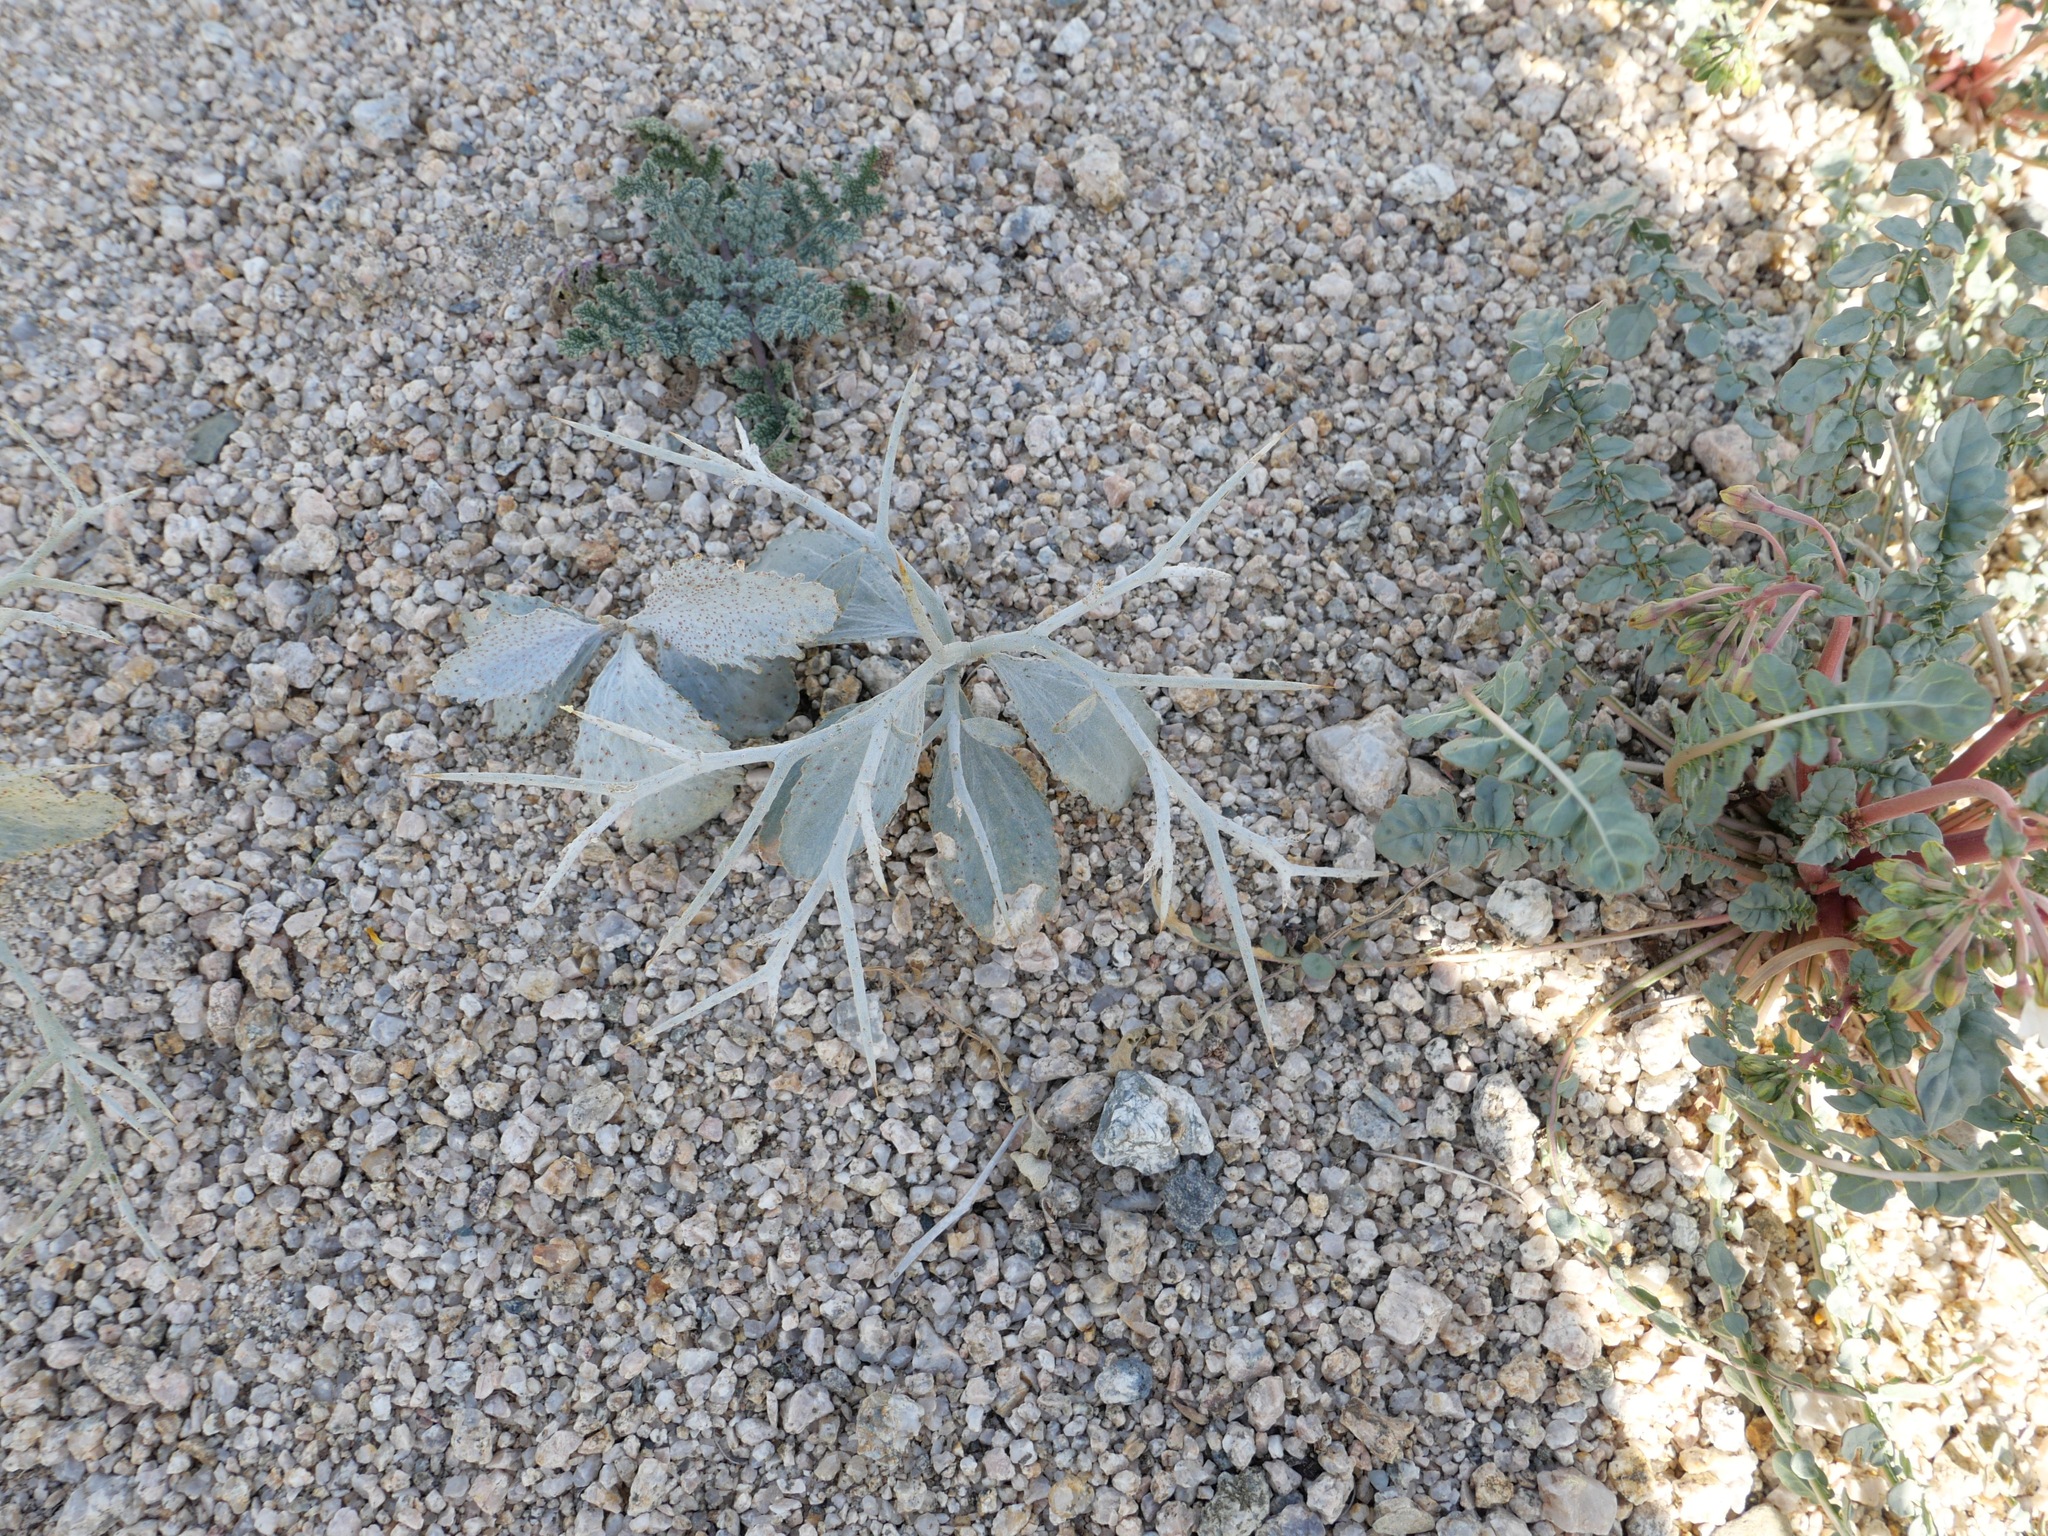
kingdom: Plantae
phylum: Tracheophyta
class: Magnoliopsida
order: Fabales
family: Fabaceae
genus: Psorothamnus
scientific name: Psorothamnus spinosus
